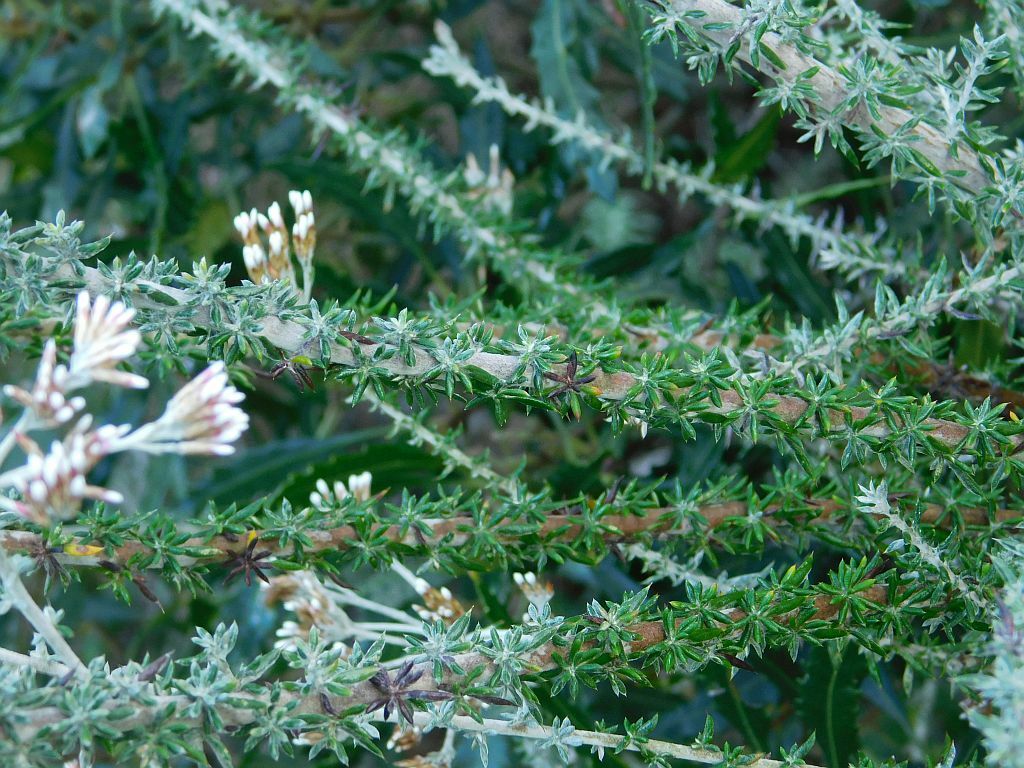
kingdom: Plantae
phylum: Tracheophyta
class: Magnoliopsida
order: Asterales
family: Asteraceae
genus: Metalasia
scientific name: Metalasia densa
